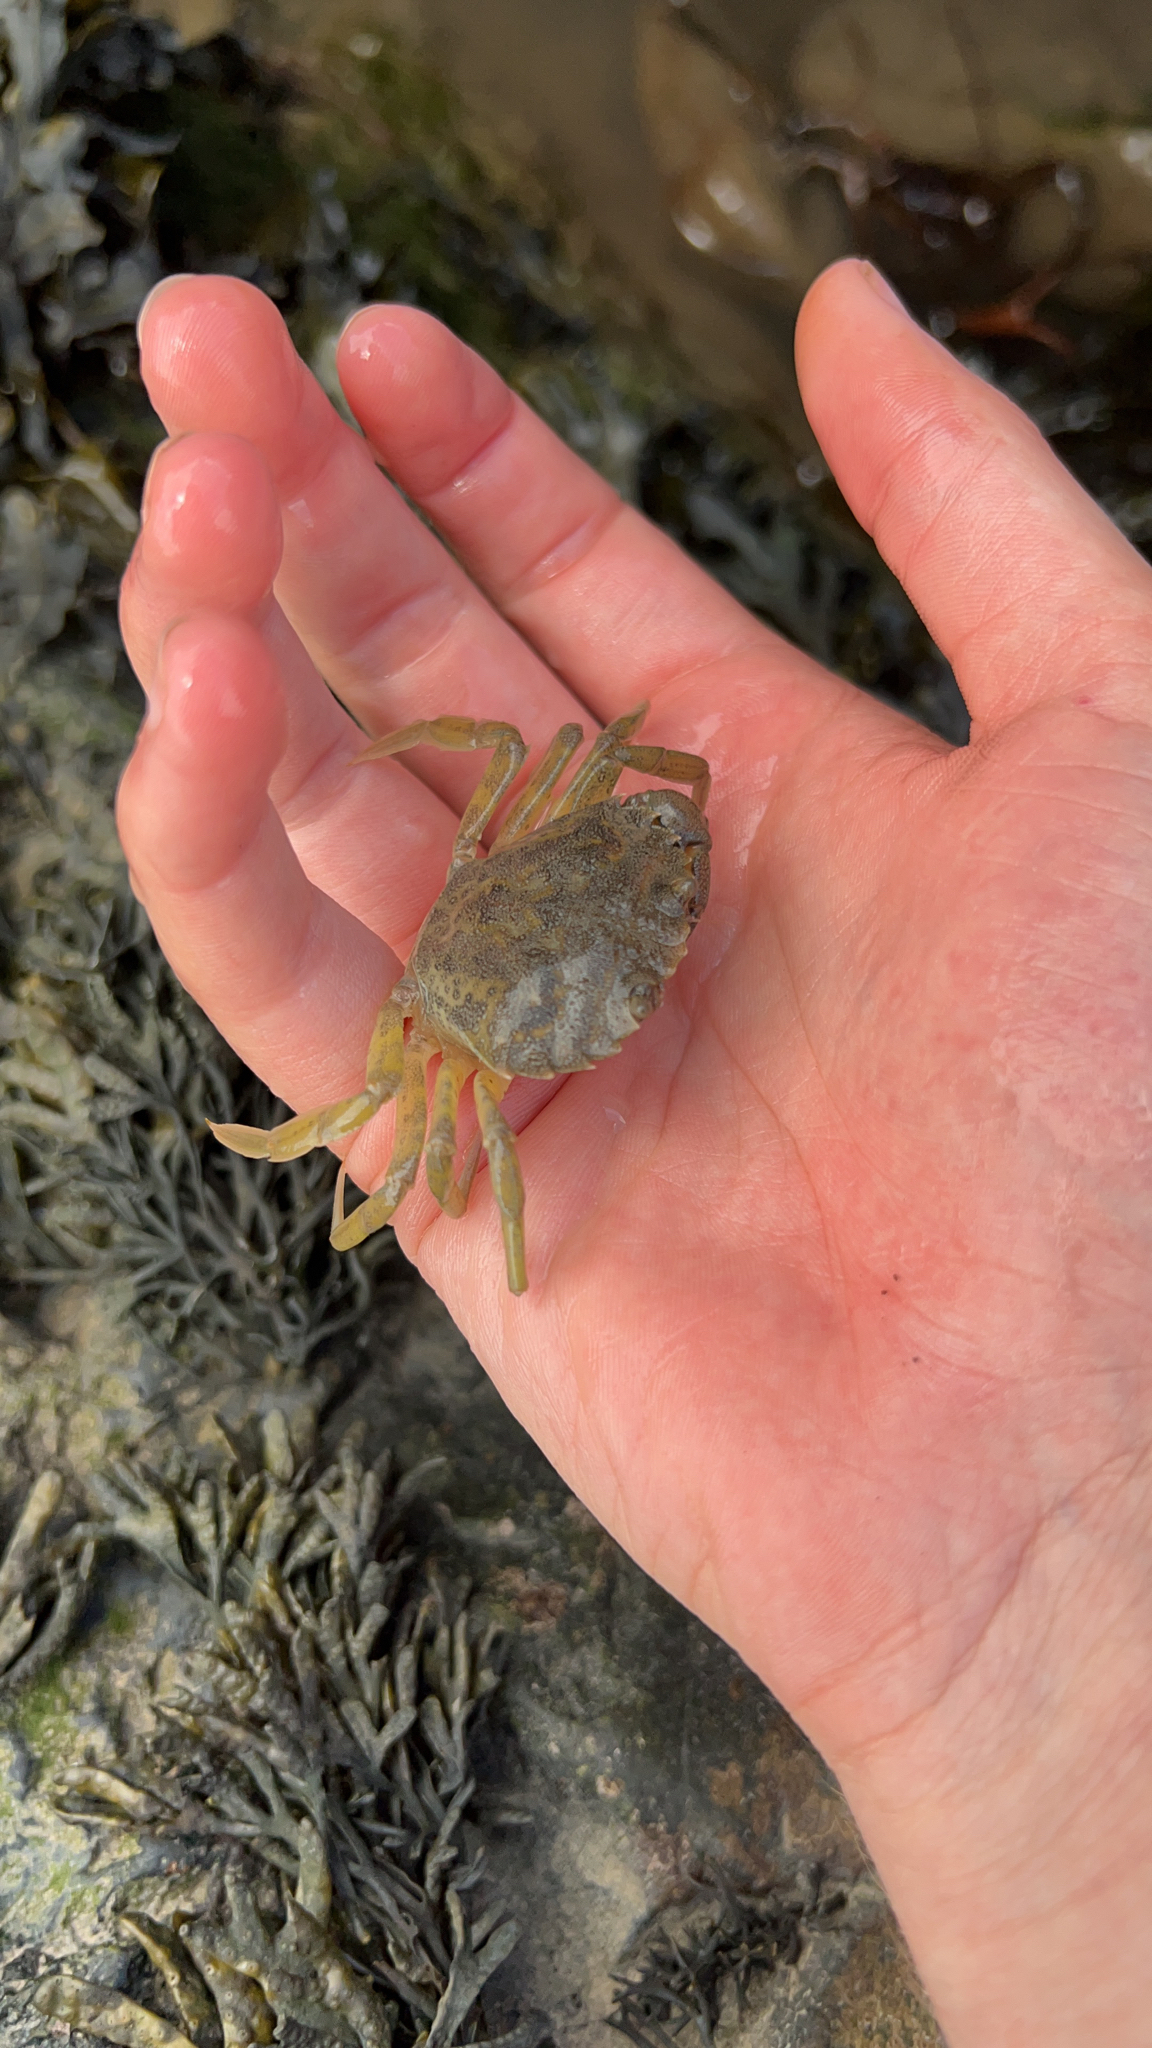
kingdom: Animalia
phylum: Arthropoda
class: Malacostraca
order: Decapoda
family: Carcinidae
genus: Carcinus
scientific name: Carcinus maenas
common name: European green crab
